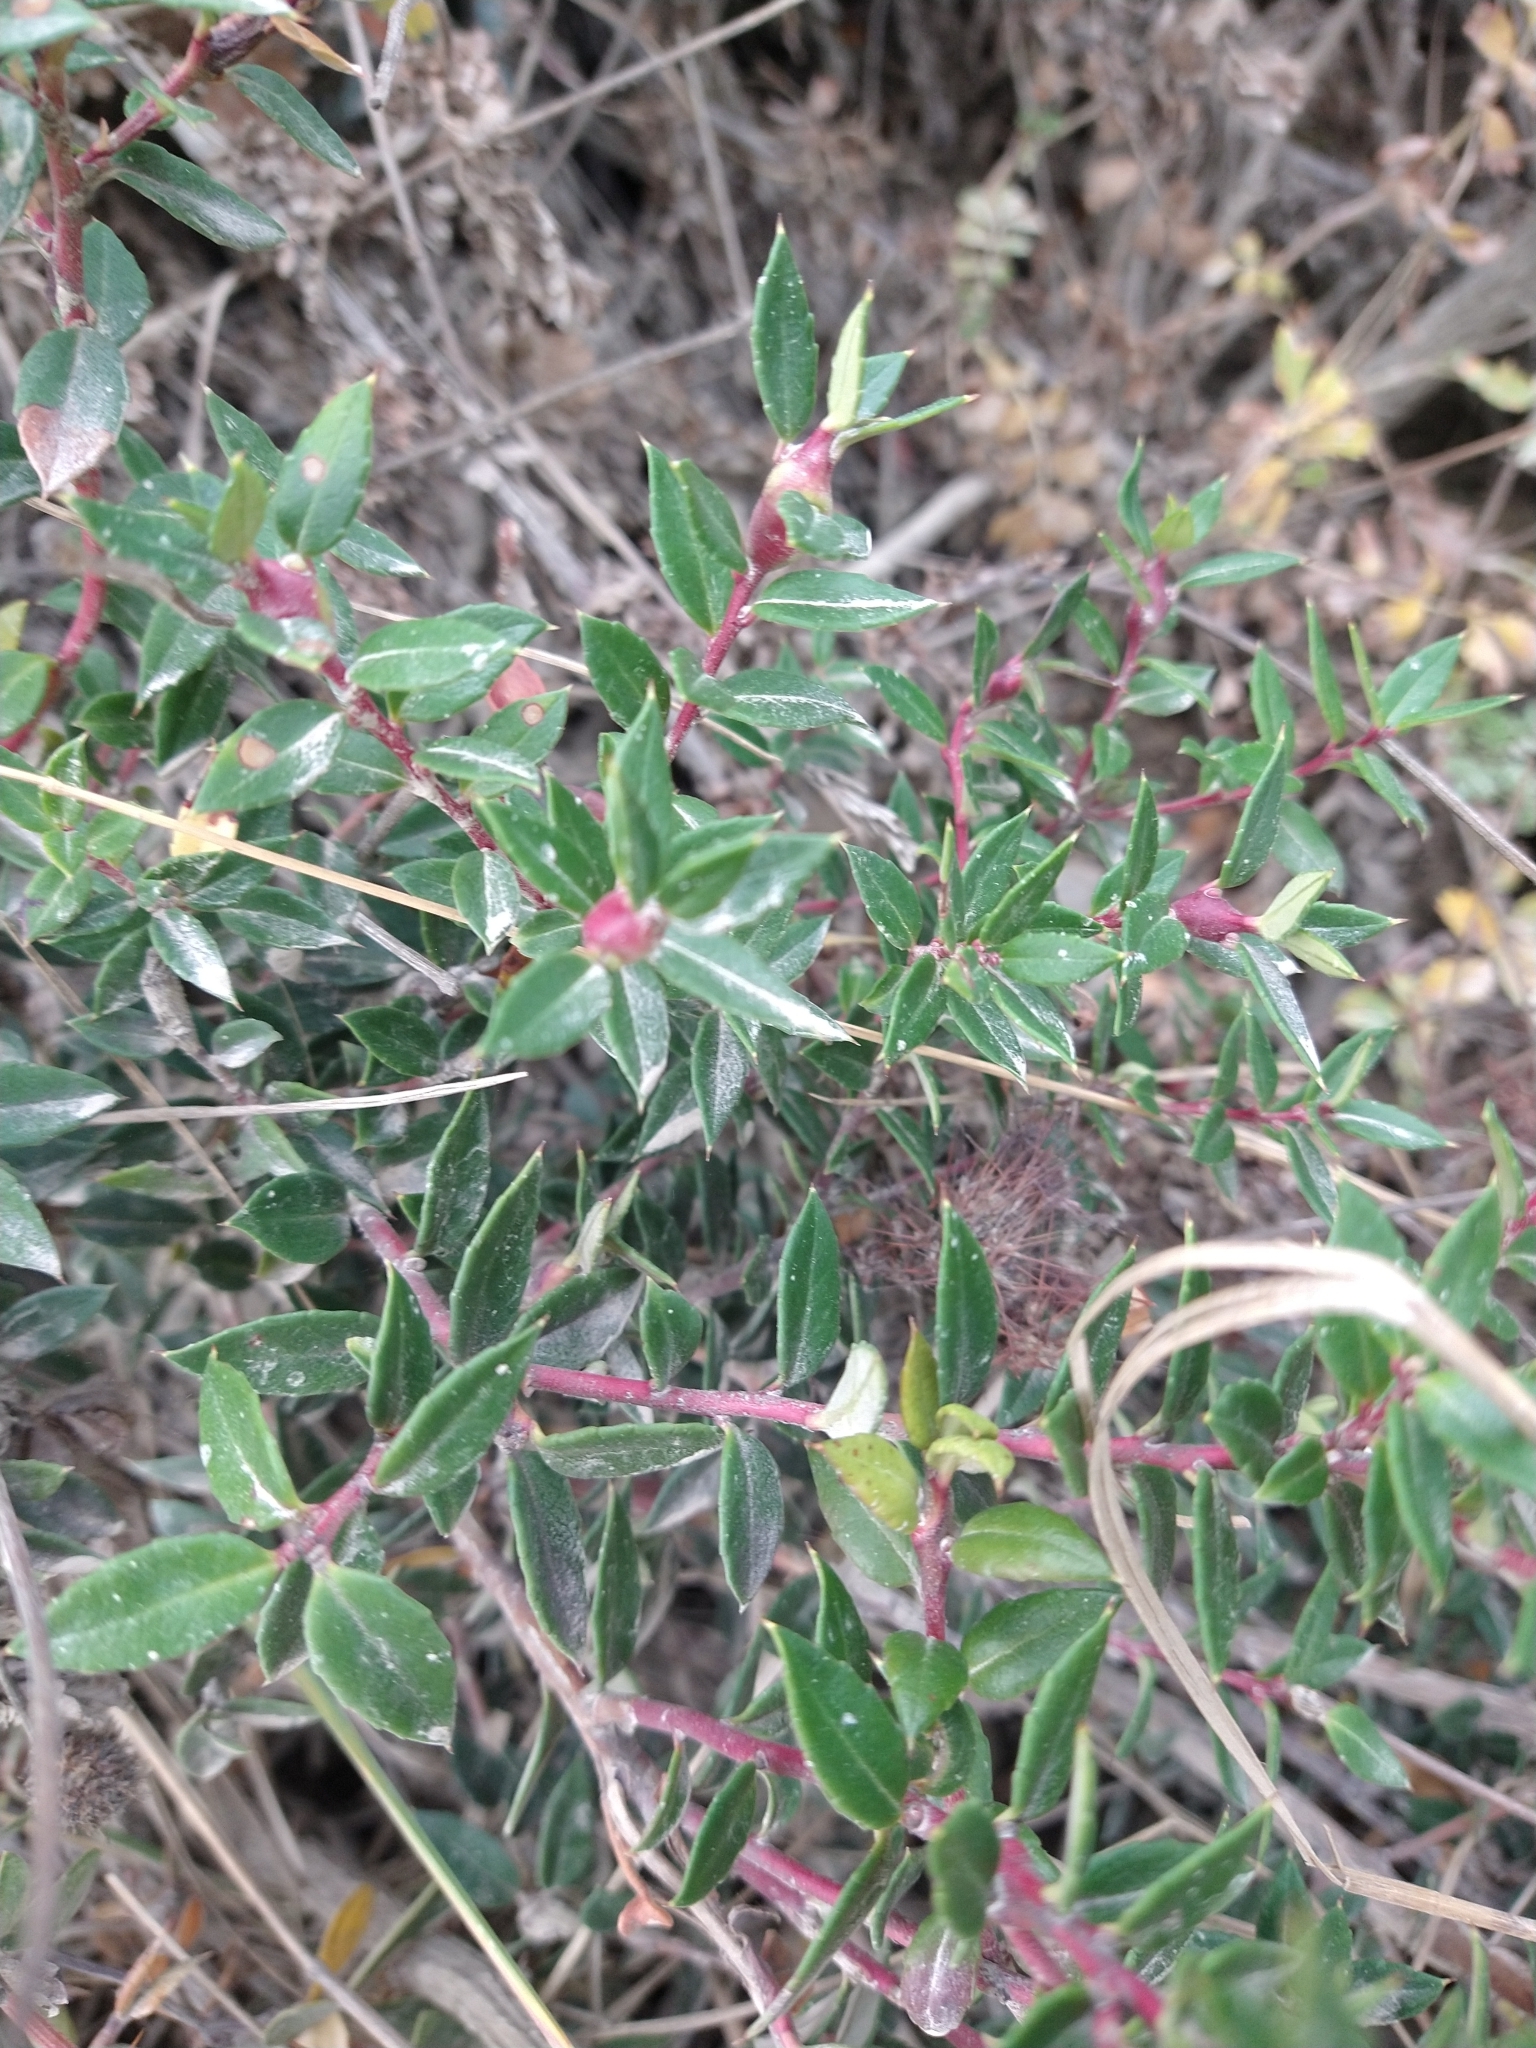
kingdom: Plantae
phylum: Tracheophyta
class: Magnoliopsida
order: Ericales
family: Ericaceae
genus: Gaultheria
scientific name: Gaultheria mucronata
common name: Prickly heath
